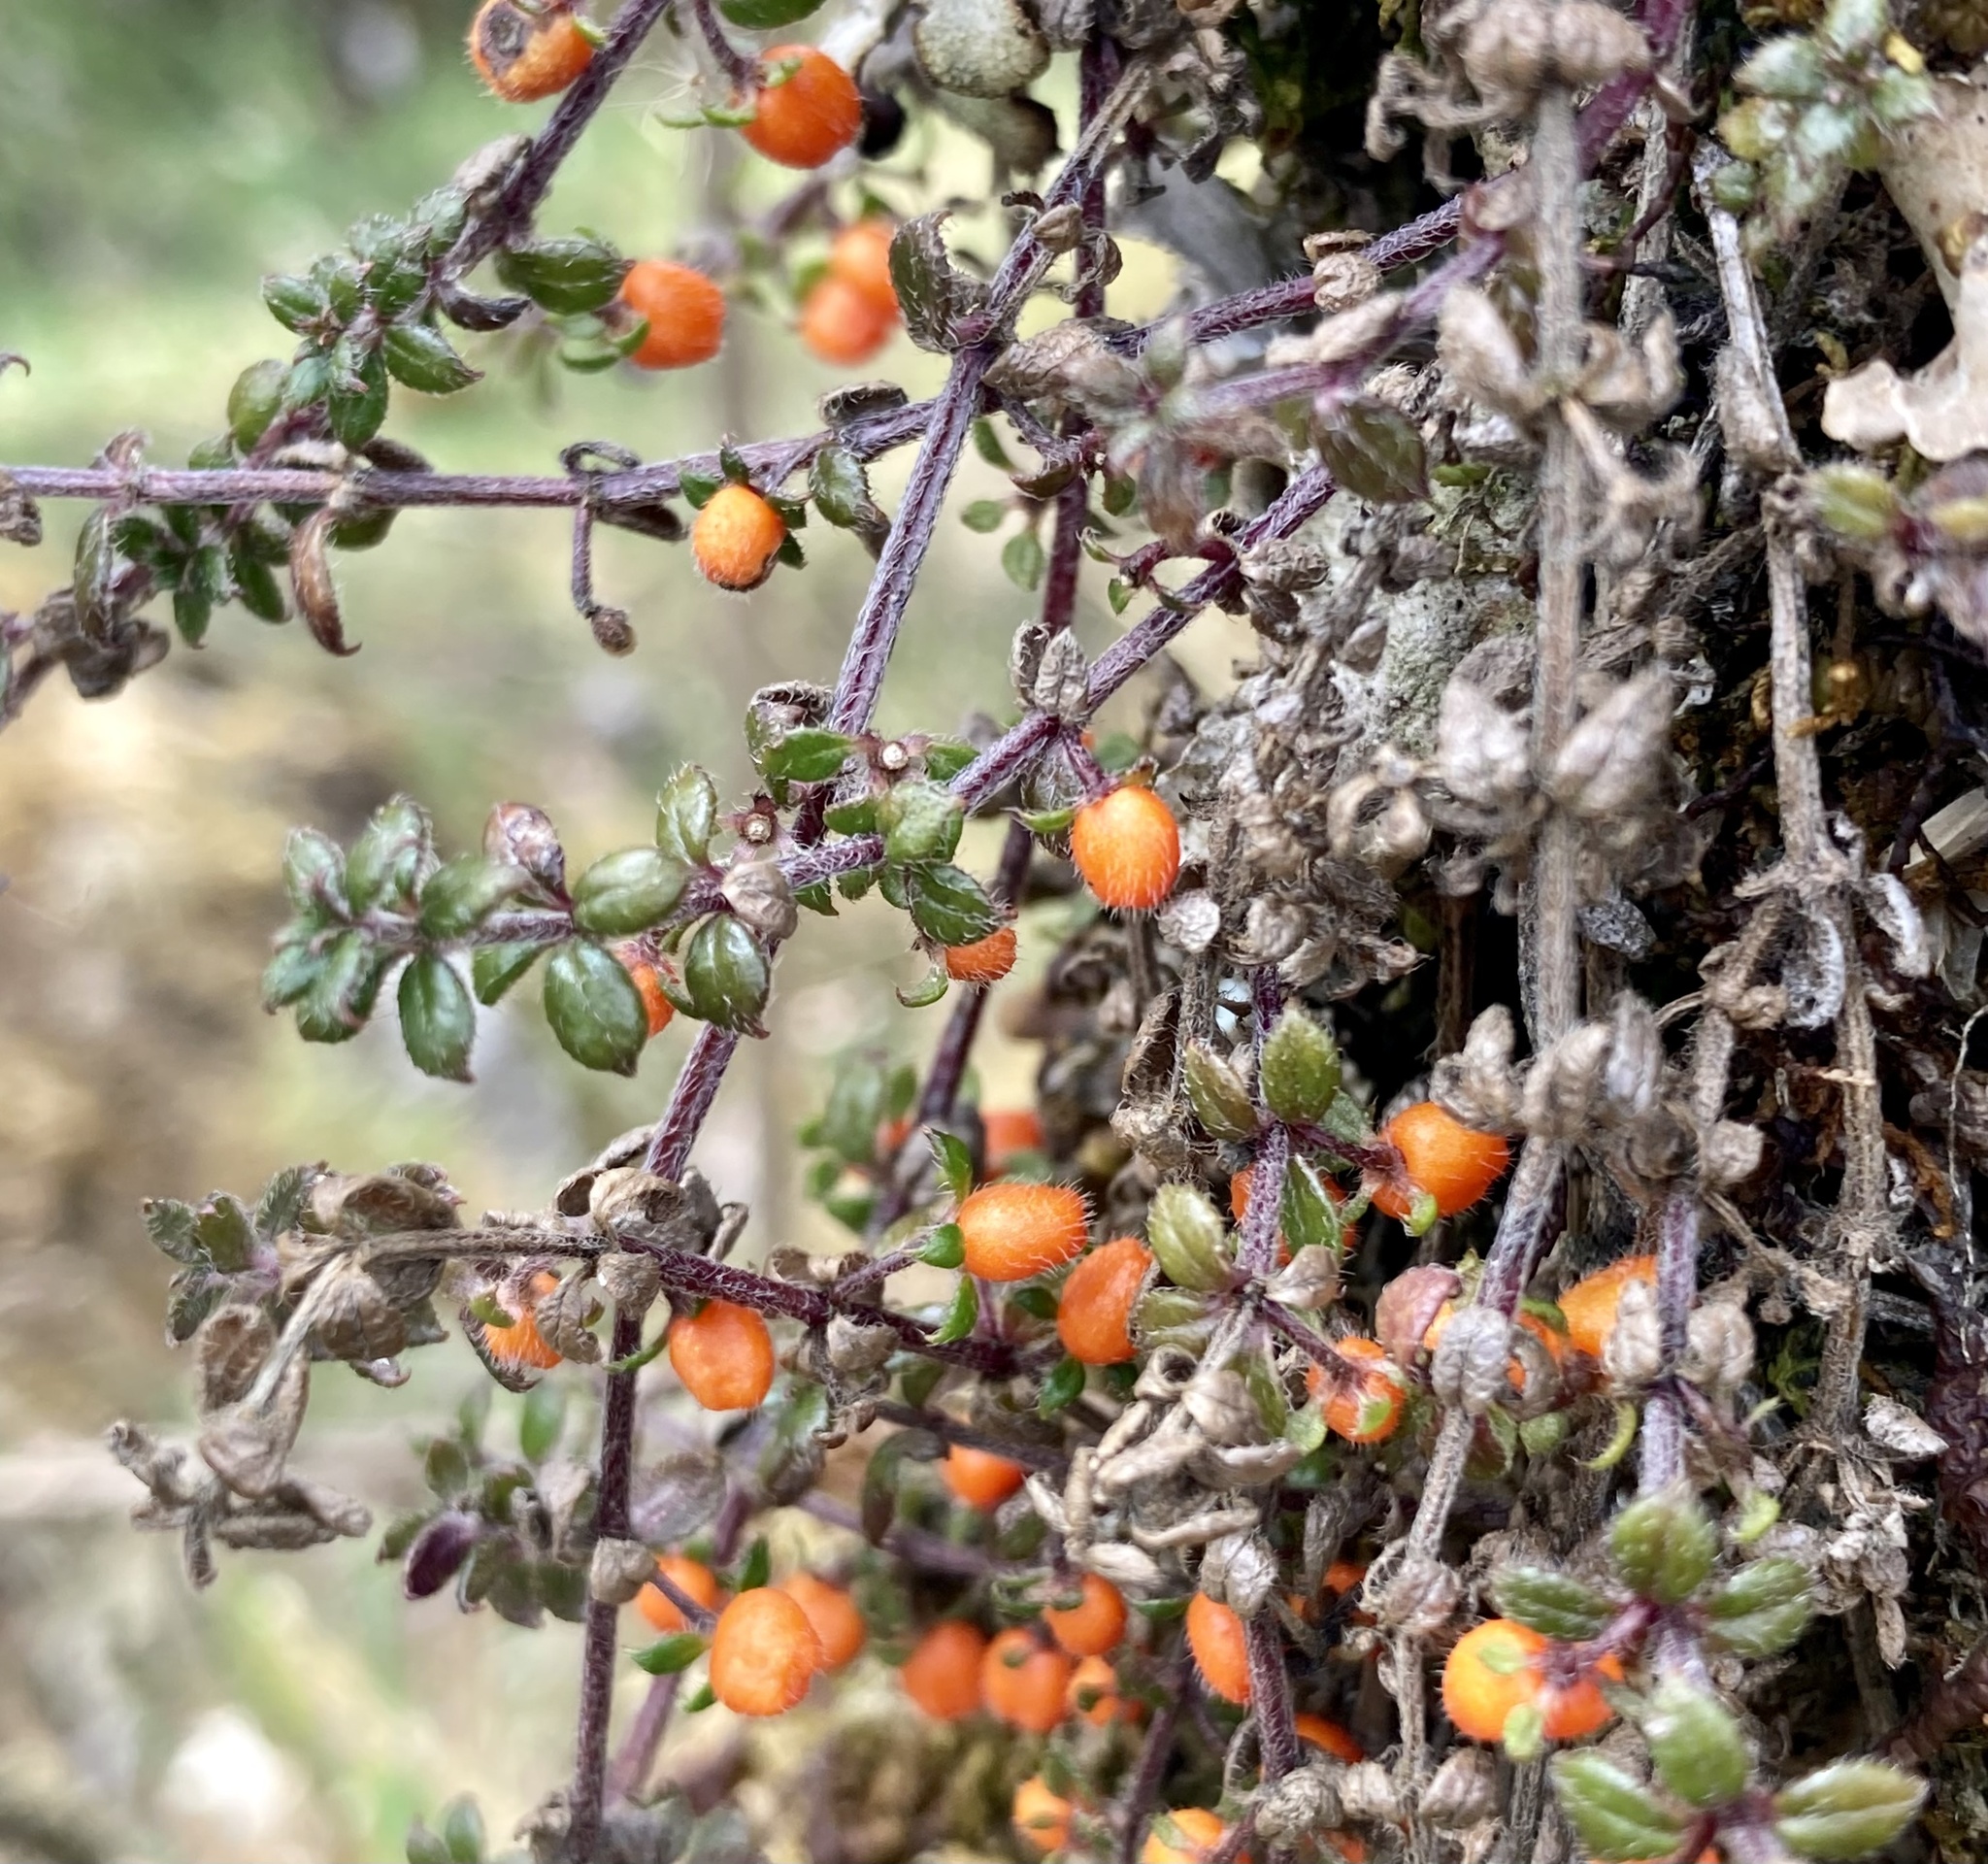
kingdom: Plantae
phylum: Tracheophyta
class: Magnoliopsida
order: Gentianales
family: Rubiaceae
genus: Galium
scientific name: Galium hypocarpium
